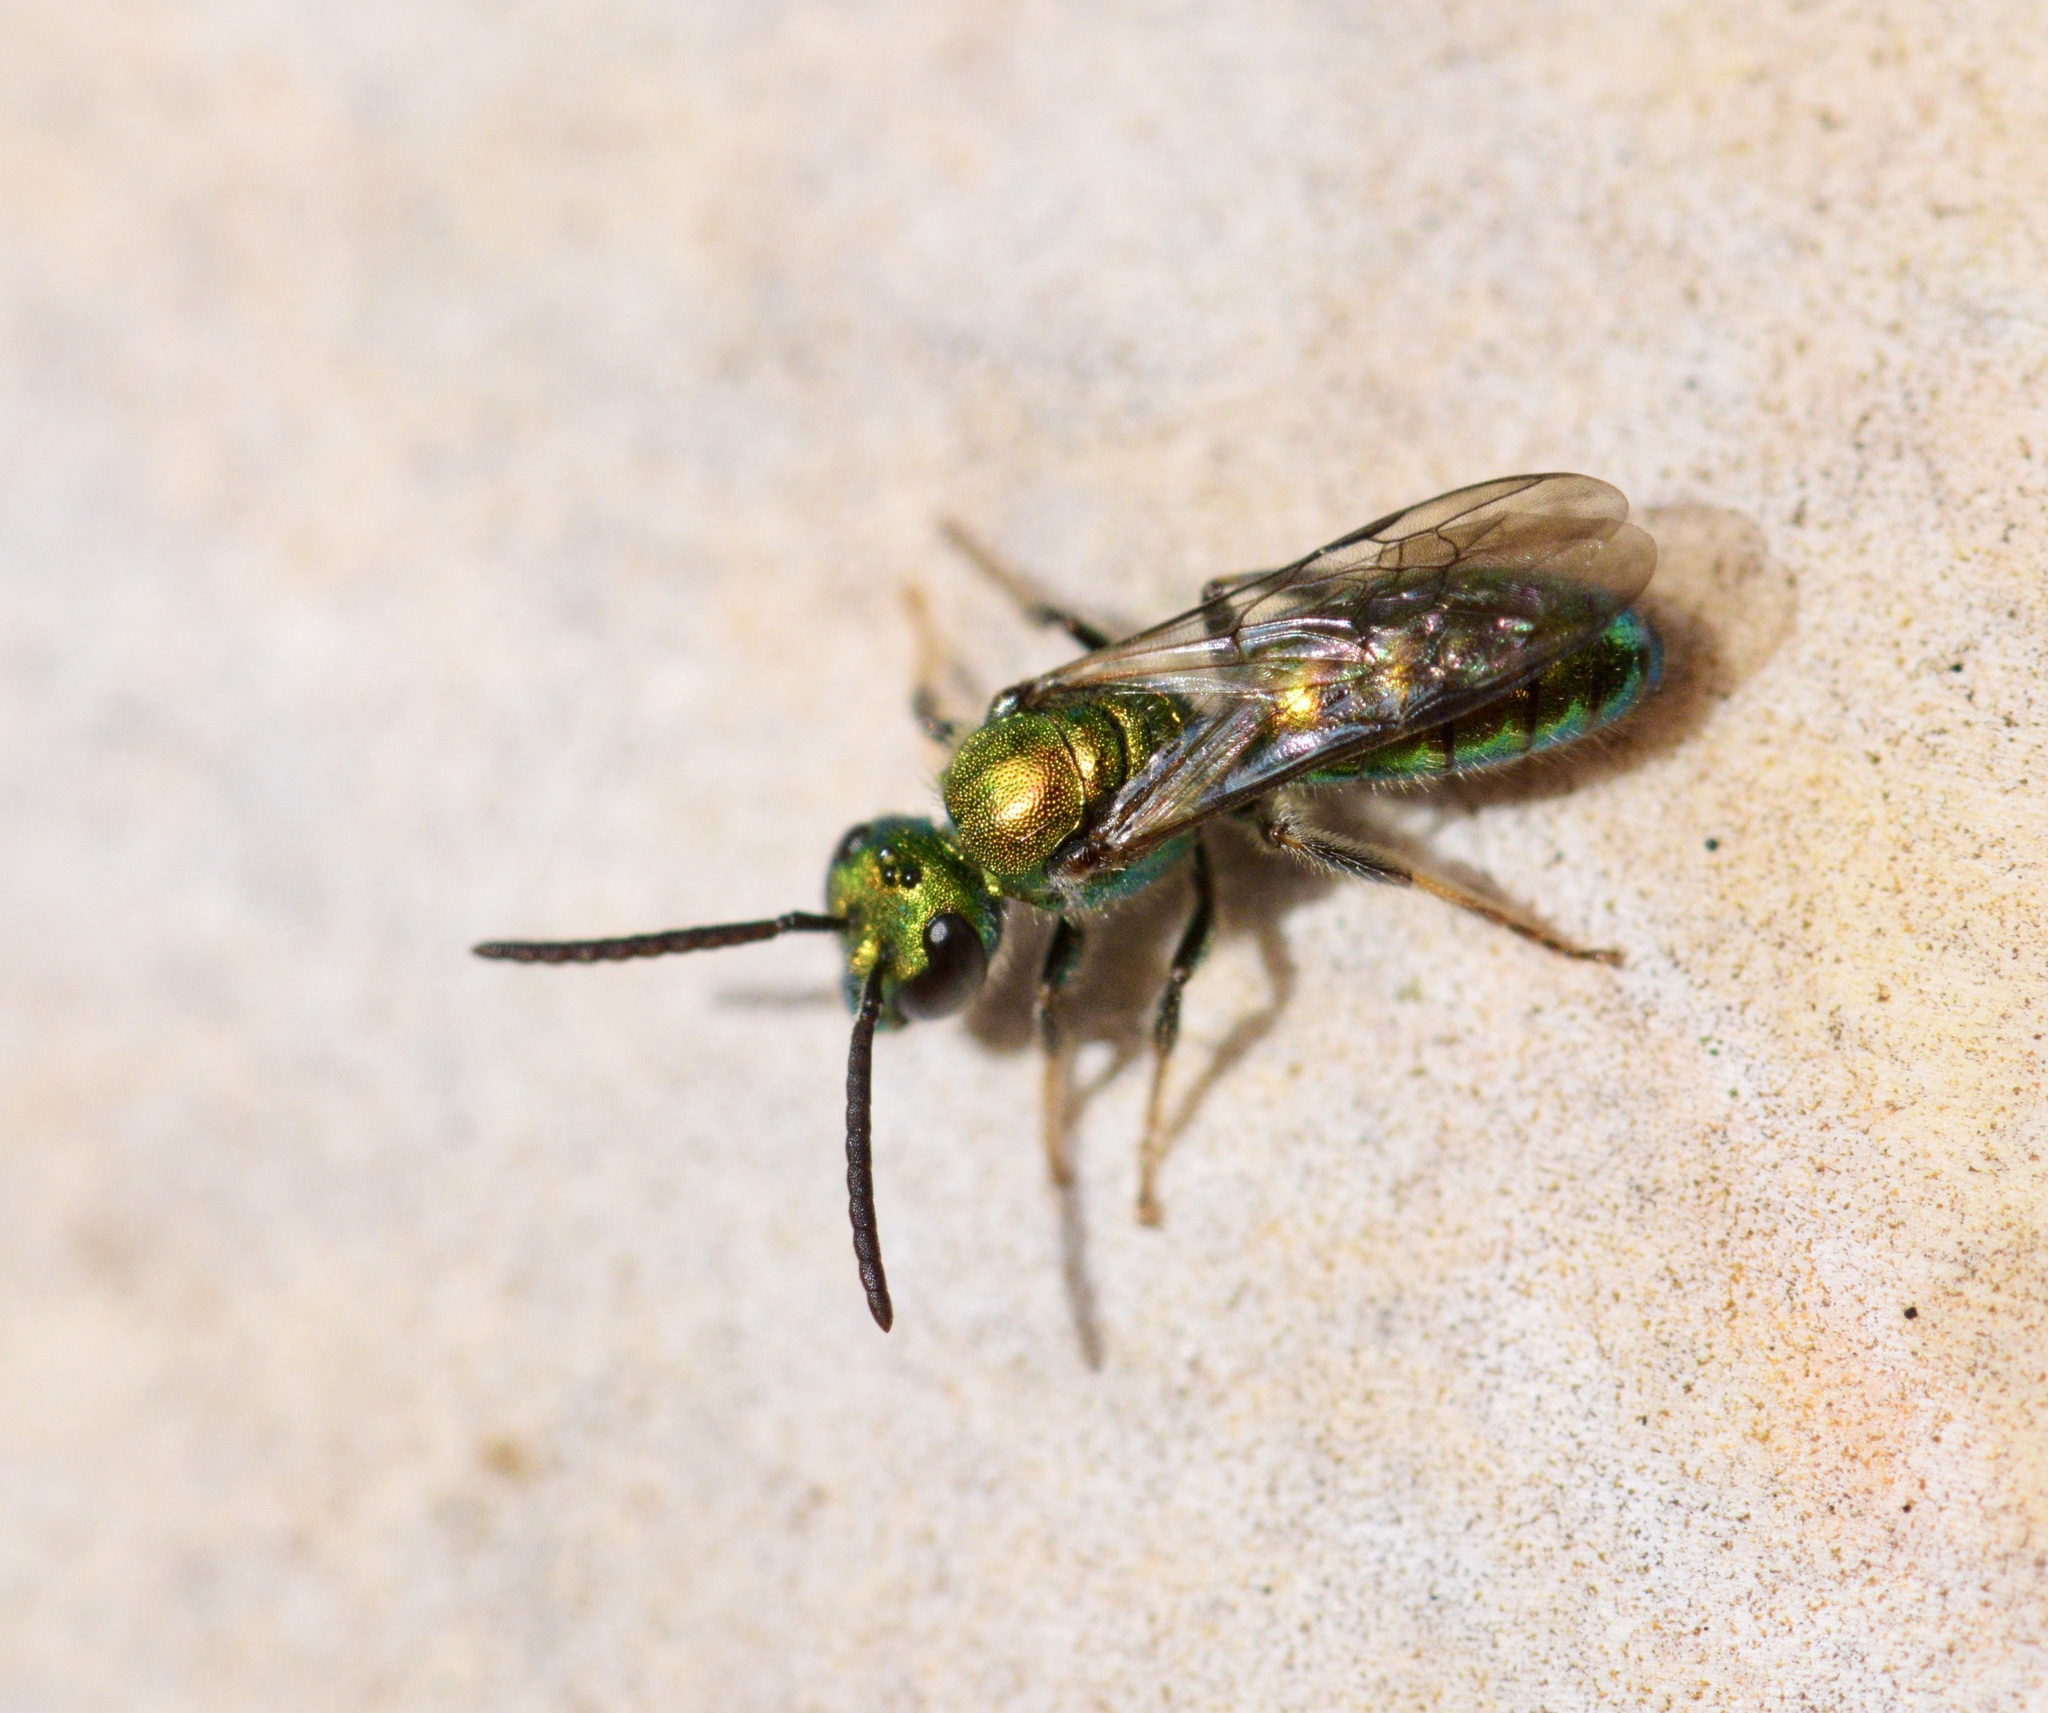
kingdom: Animalia
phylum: Arthropoda
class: Insecta
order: Hymenoptera
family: Halictidae
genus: Augochlora
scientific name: Augochlora pura
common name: Pure green sweat bee
